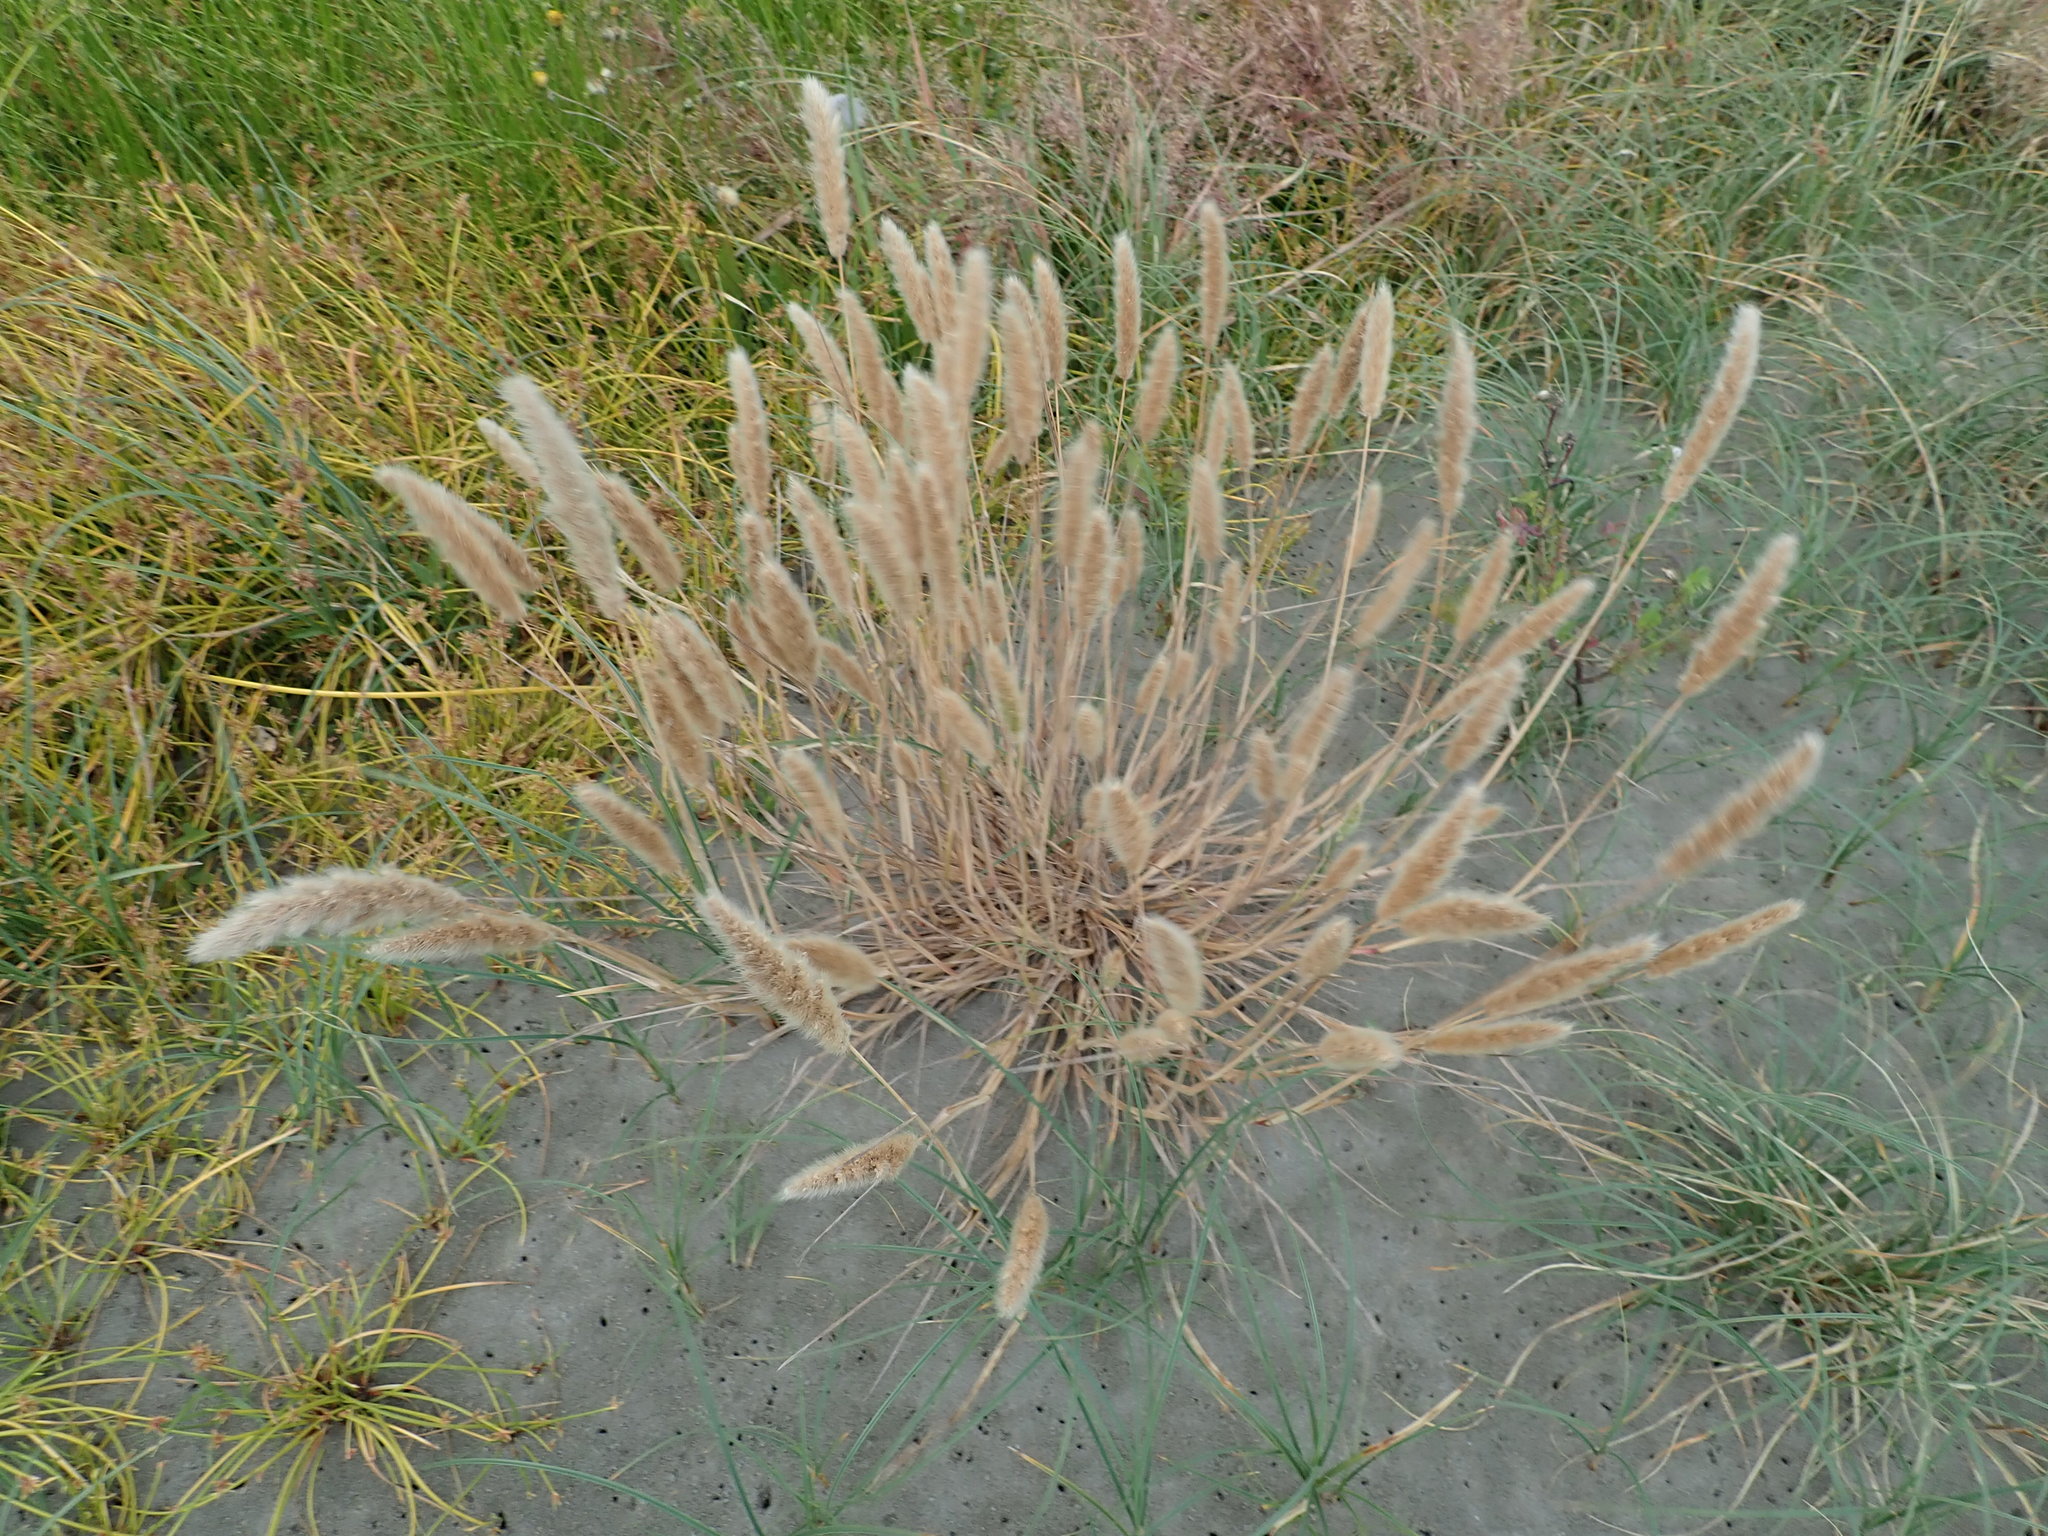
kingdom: Plantae
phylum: Tracheophyta
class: Liliopsida
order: Poales
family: Poaceae
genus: Polypogon
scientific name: Polypogon monspeliensis
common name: Annual rabbitsfoot grass
